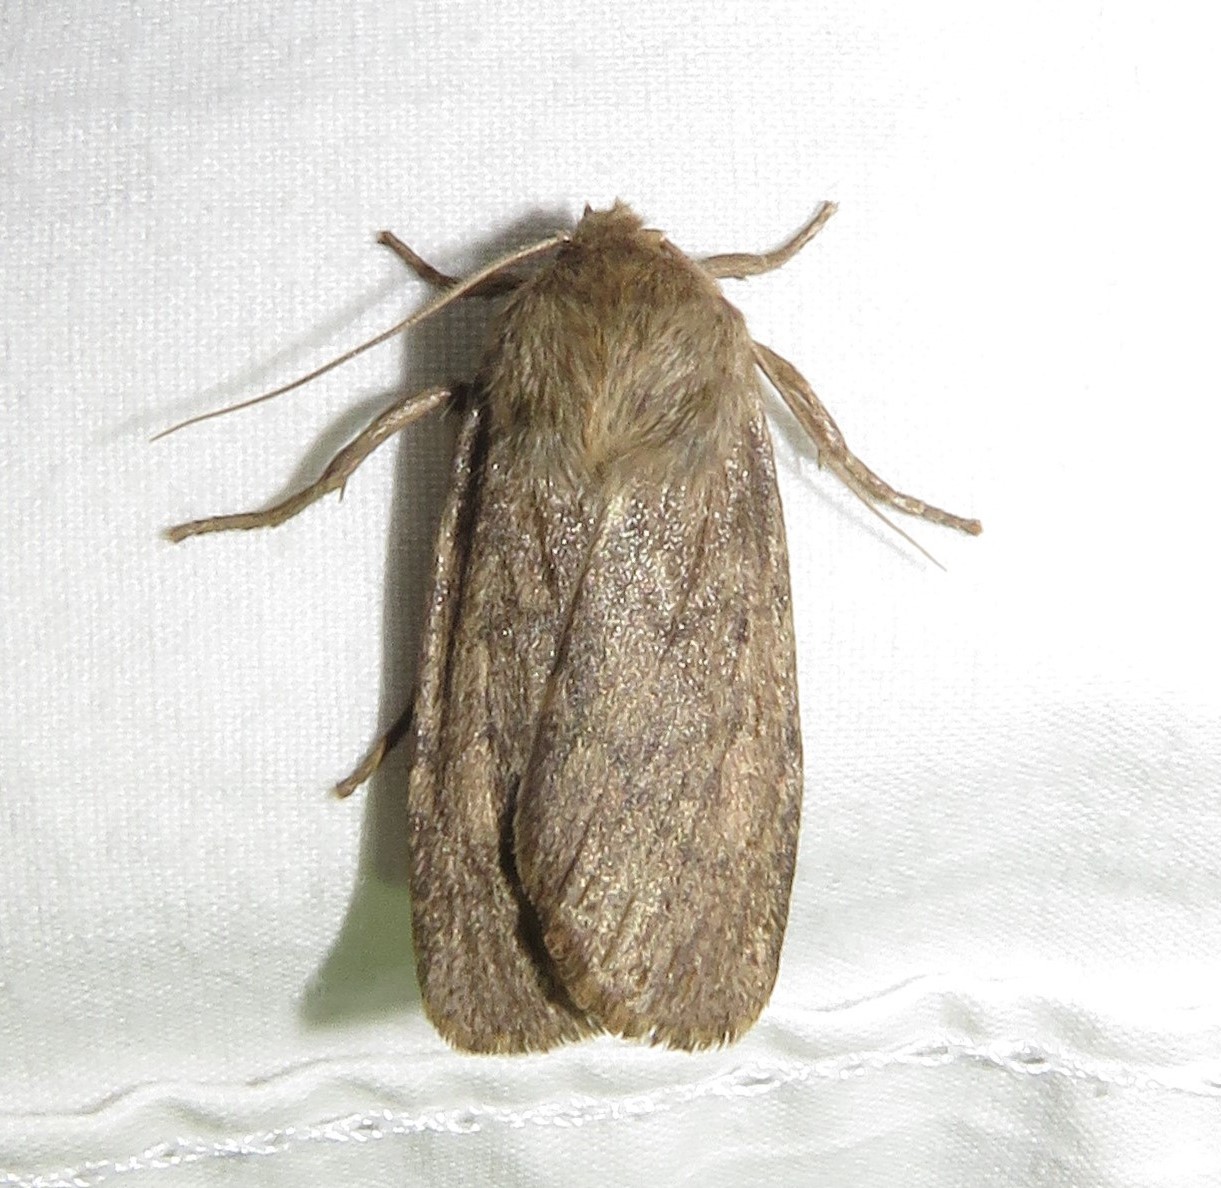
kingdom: Animalia
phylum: Arthropoda
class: Insecta
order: Lepidoptera
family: Noctuidae
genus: Ufeus
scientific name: Ufeus satyricus
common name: Brown satyr moth
